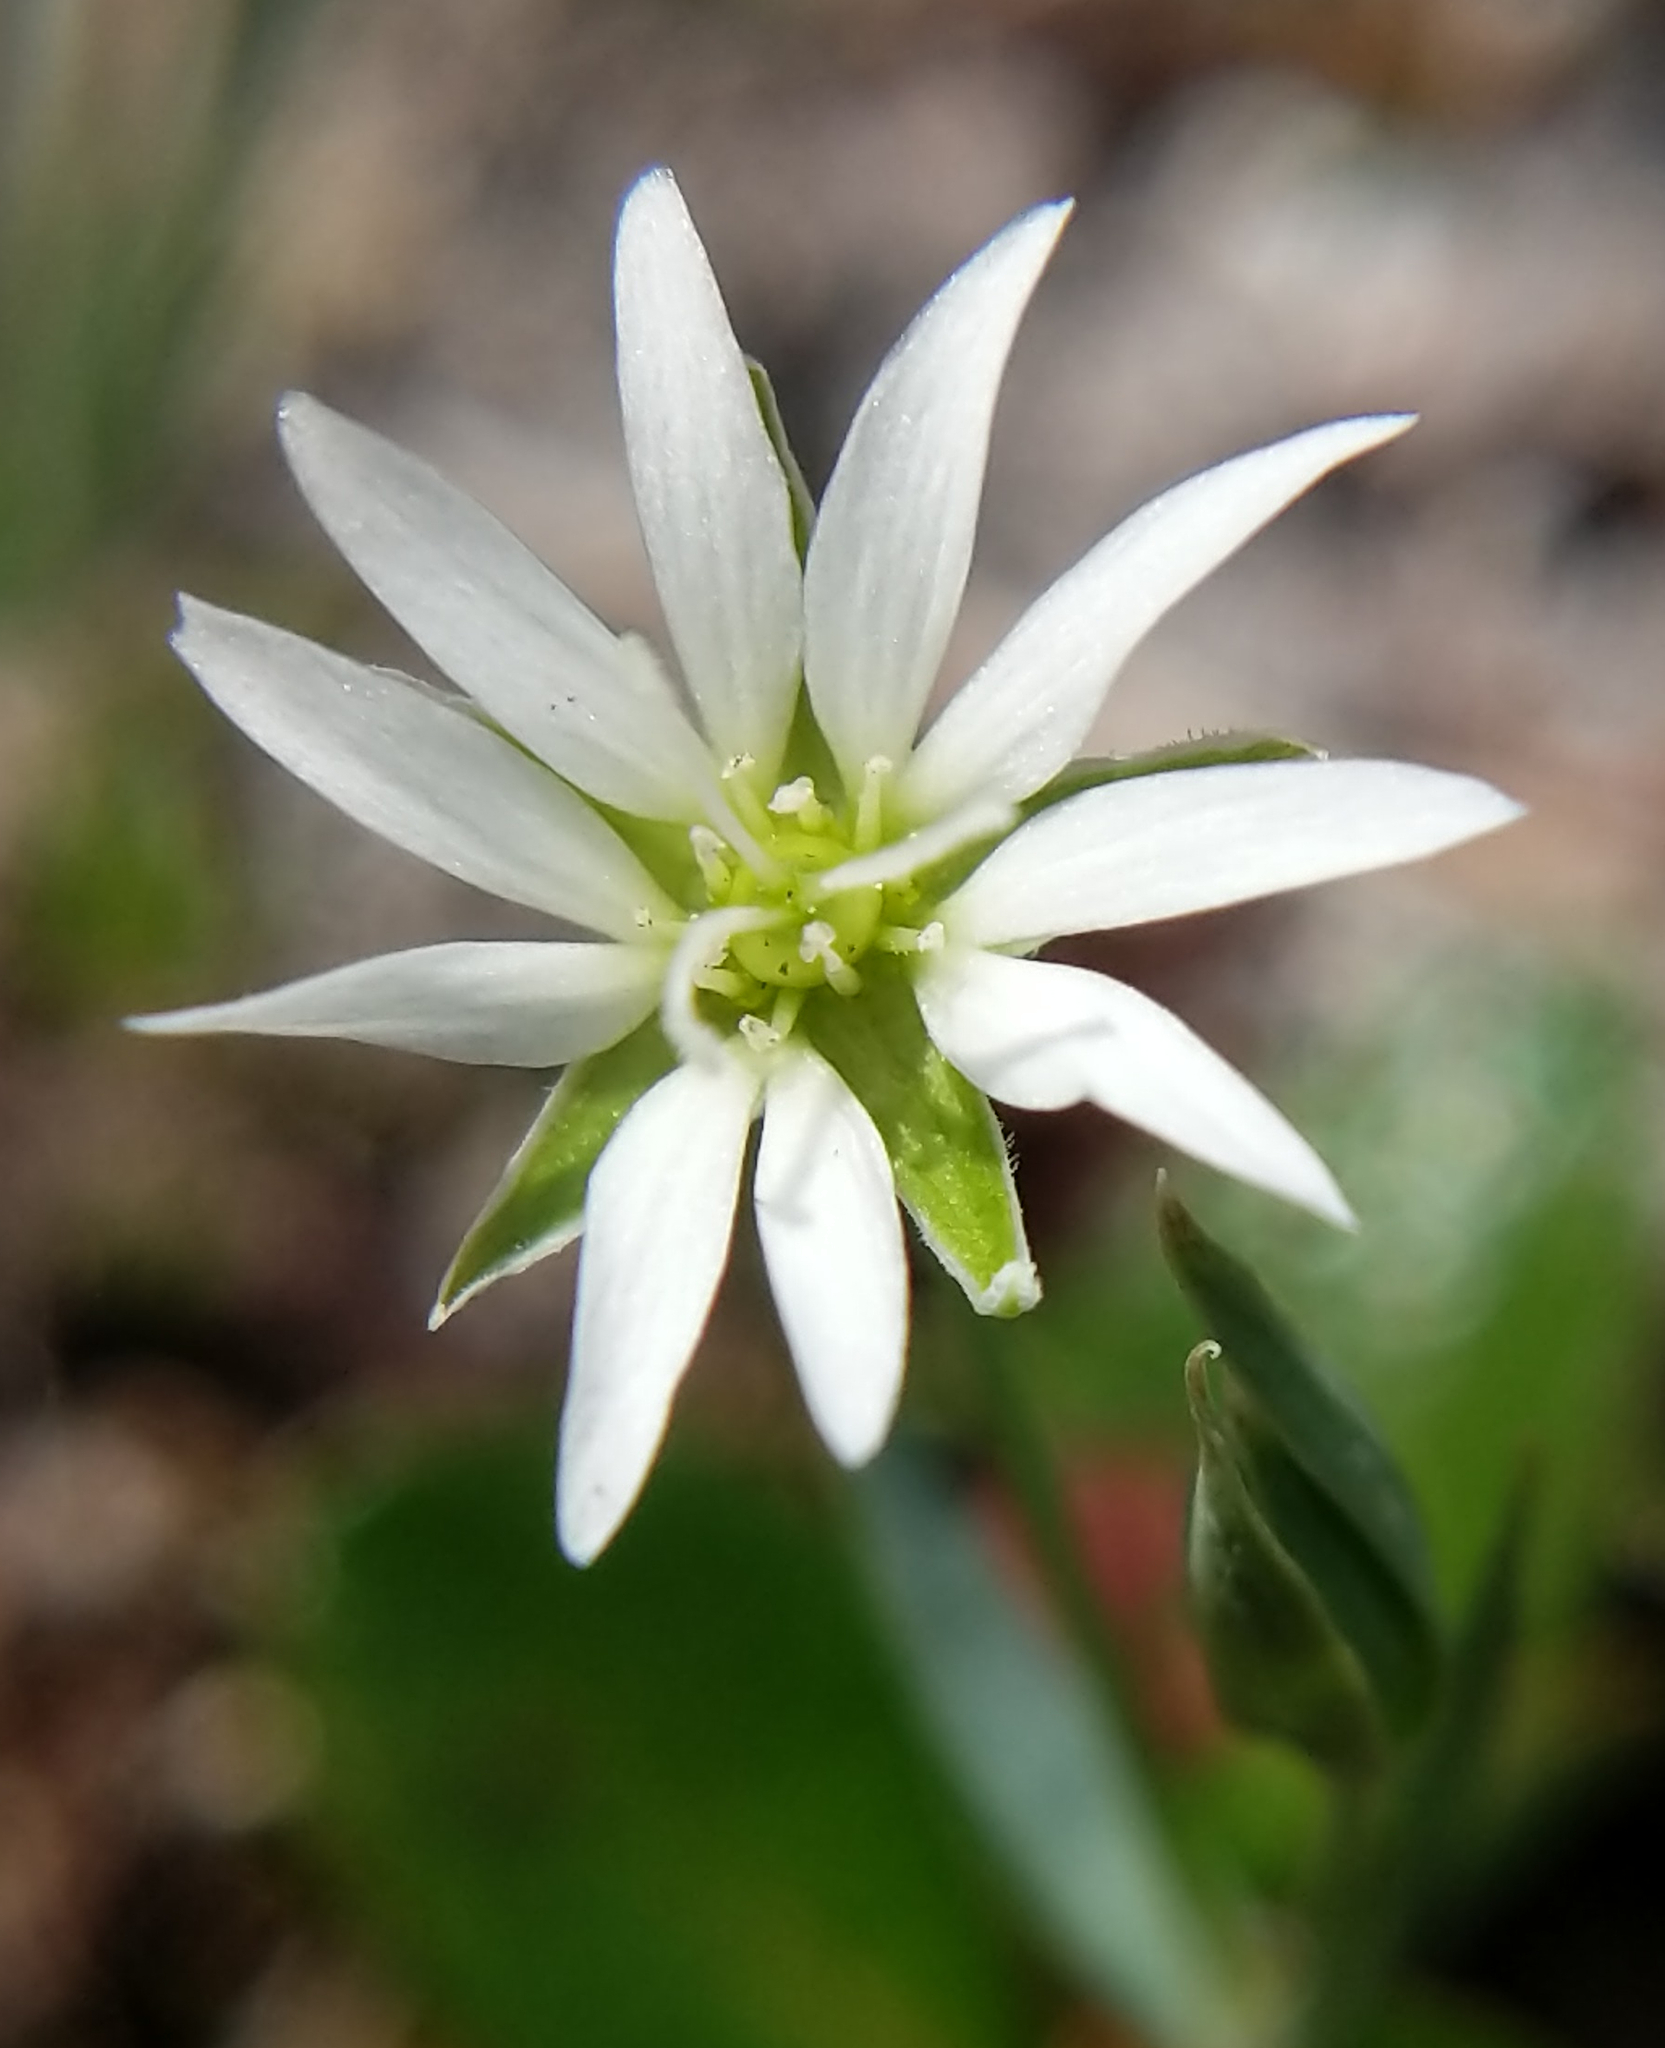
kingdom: Plantae
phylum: Tracheophyta
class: Magnoliopsida
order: Caryophyllales
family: Caryophyllaceae
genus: Stellaria
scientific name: Stellaria longipes
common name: Goldie's starwort
